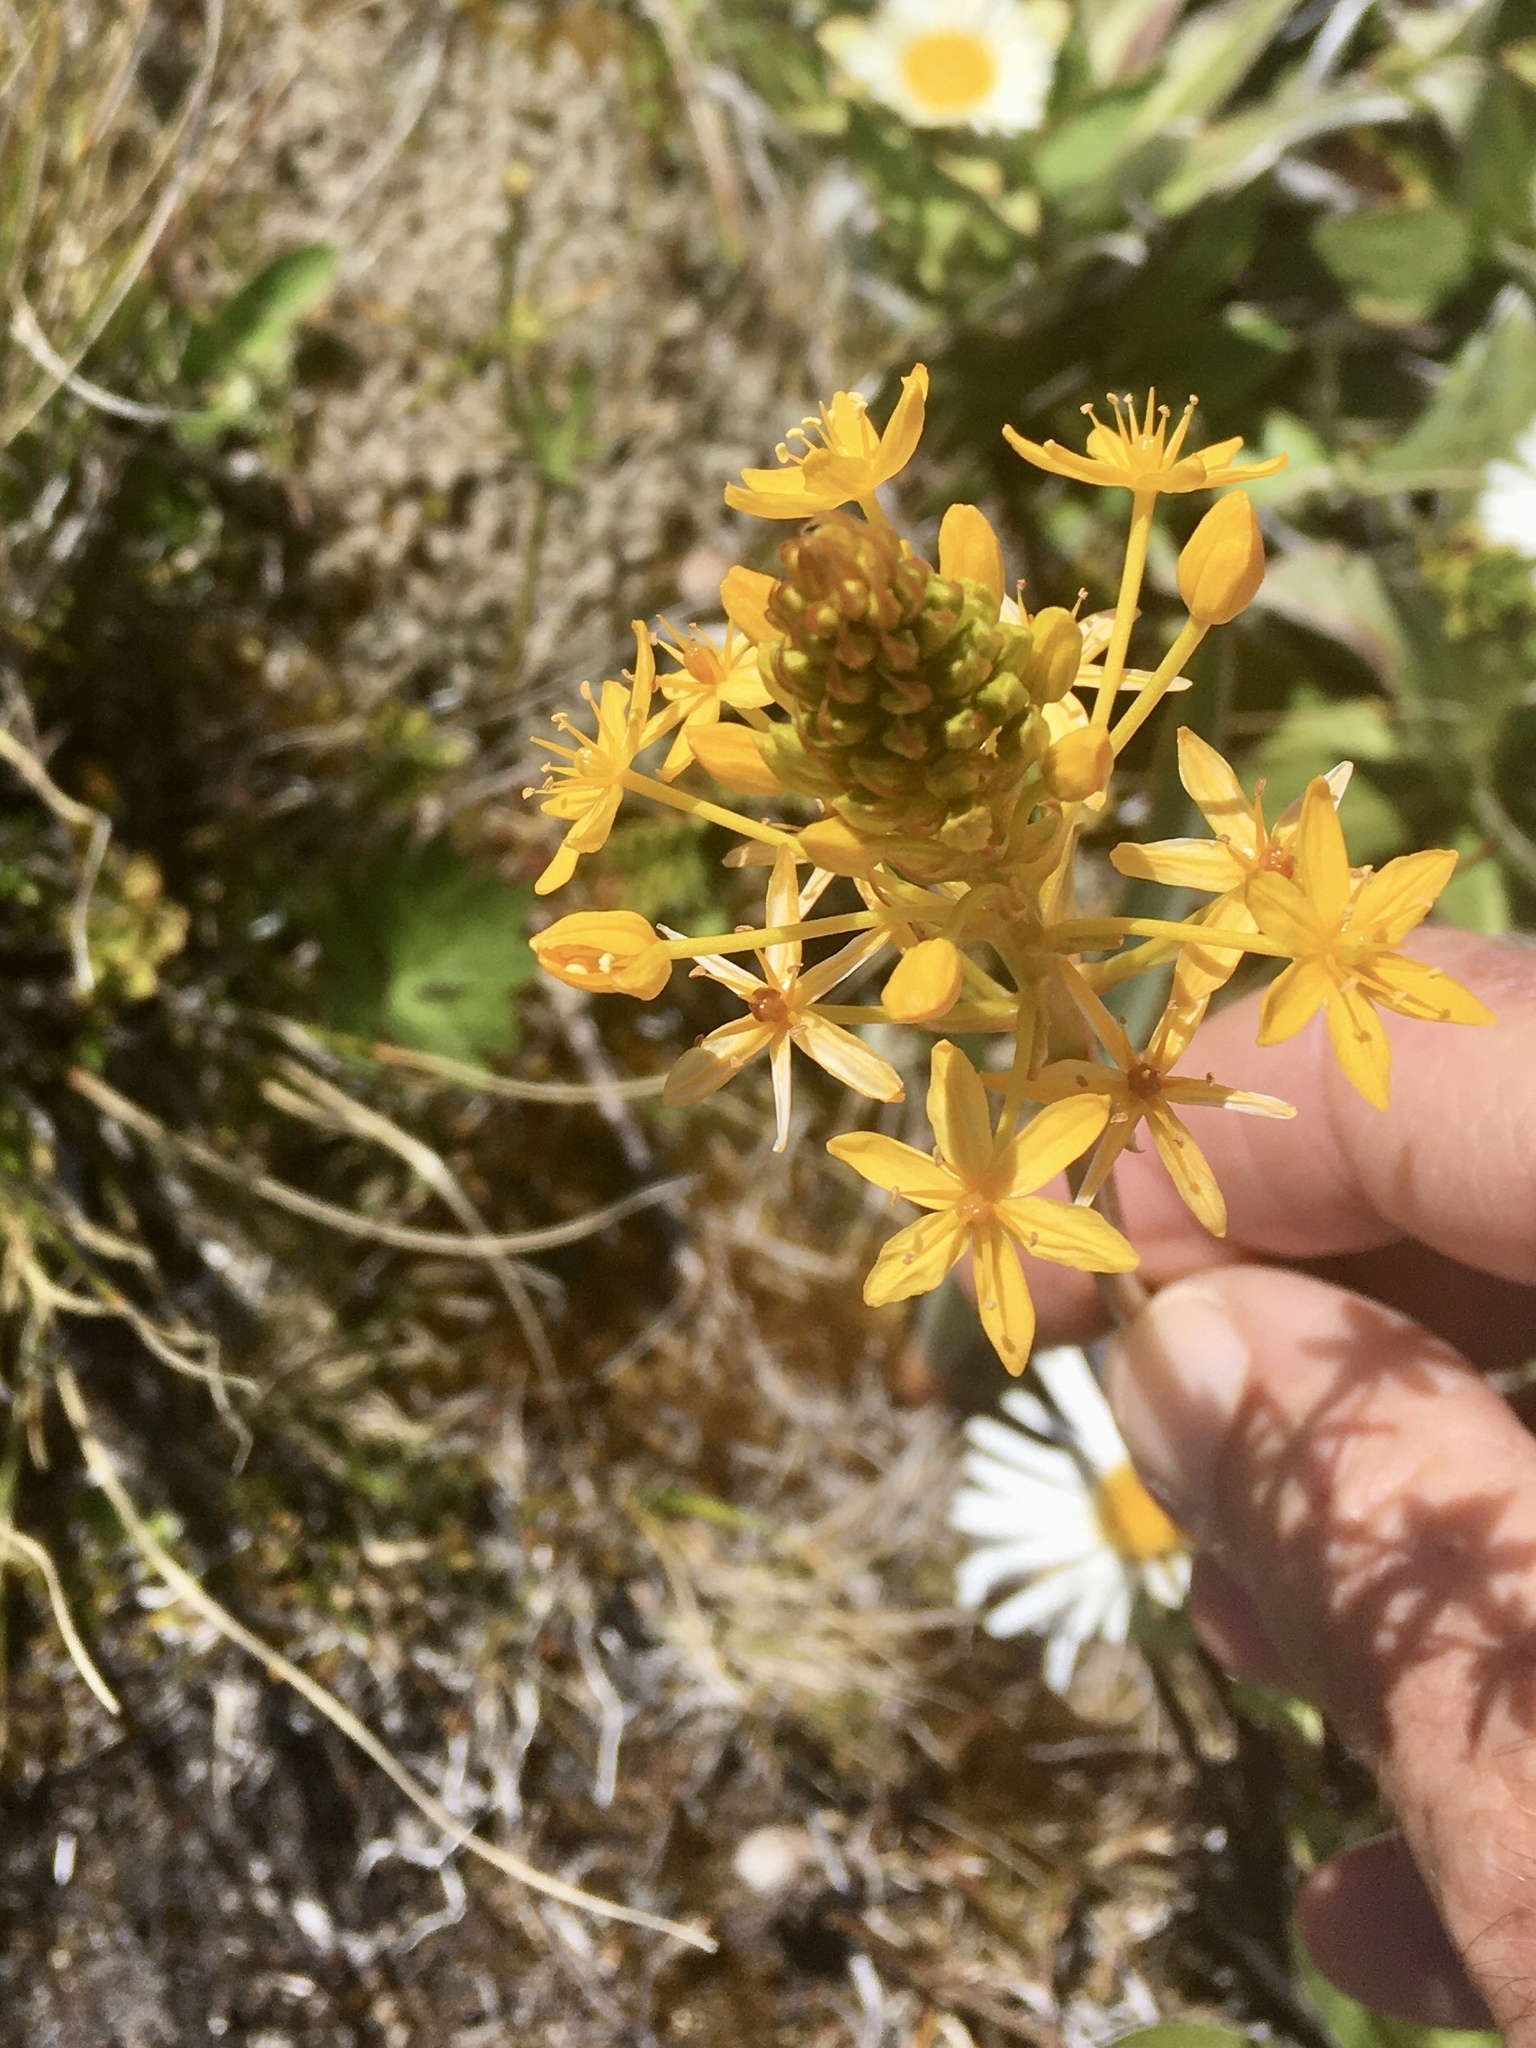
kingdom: Plantae
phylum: Tracheophyta
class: Liliopsida
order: Asparagales
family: Asphodelaceae
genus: Bulbinella
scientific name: Bulbinella hookeri
